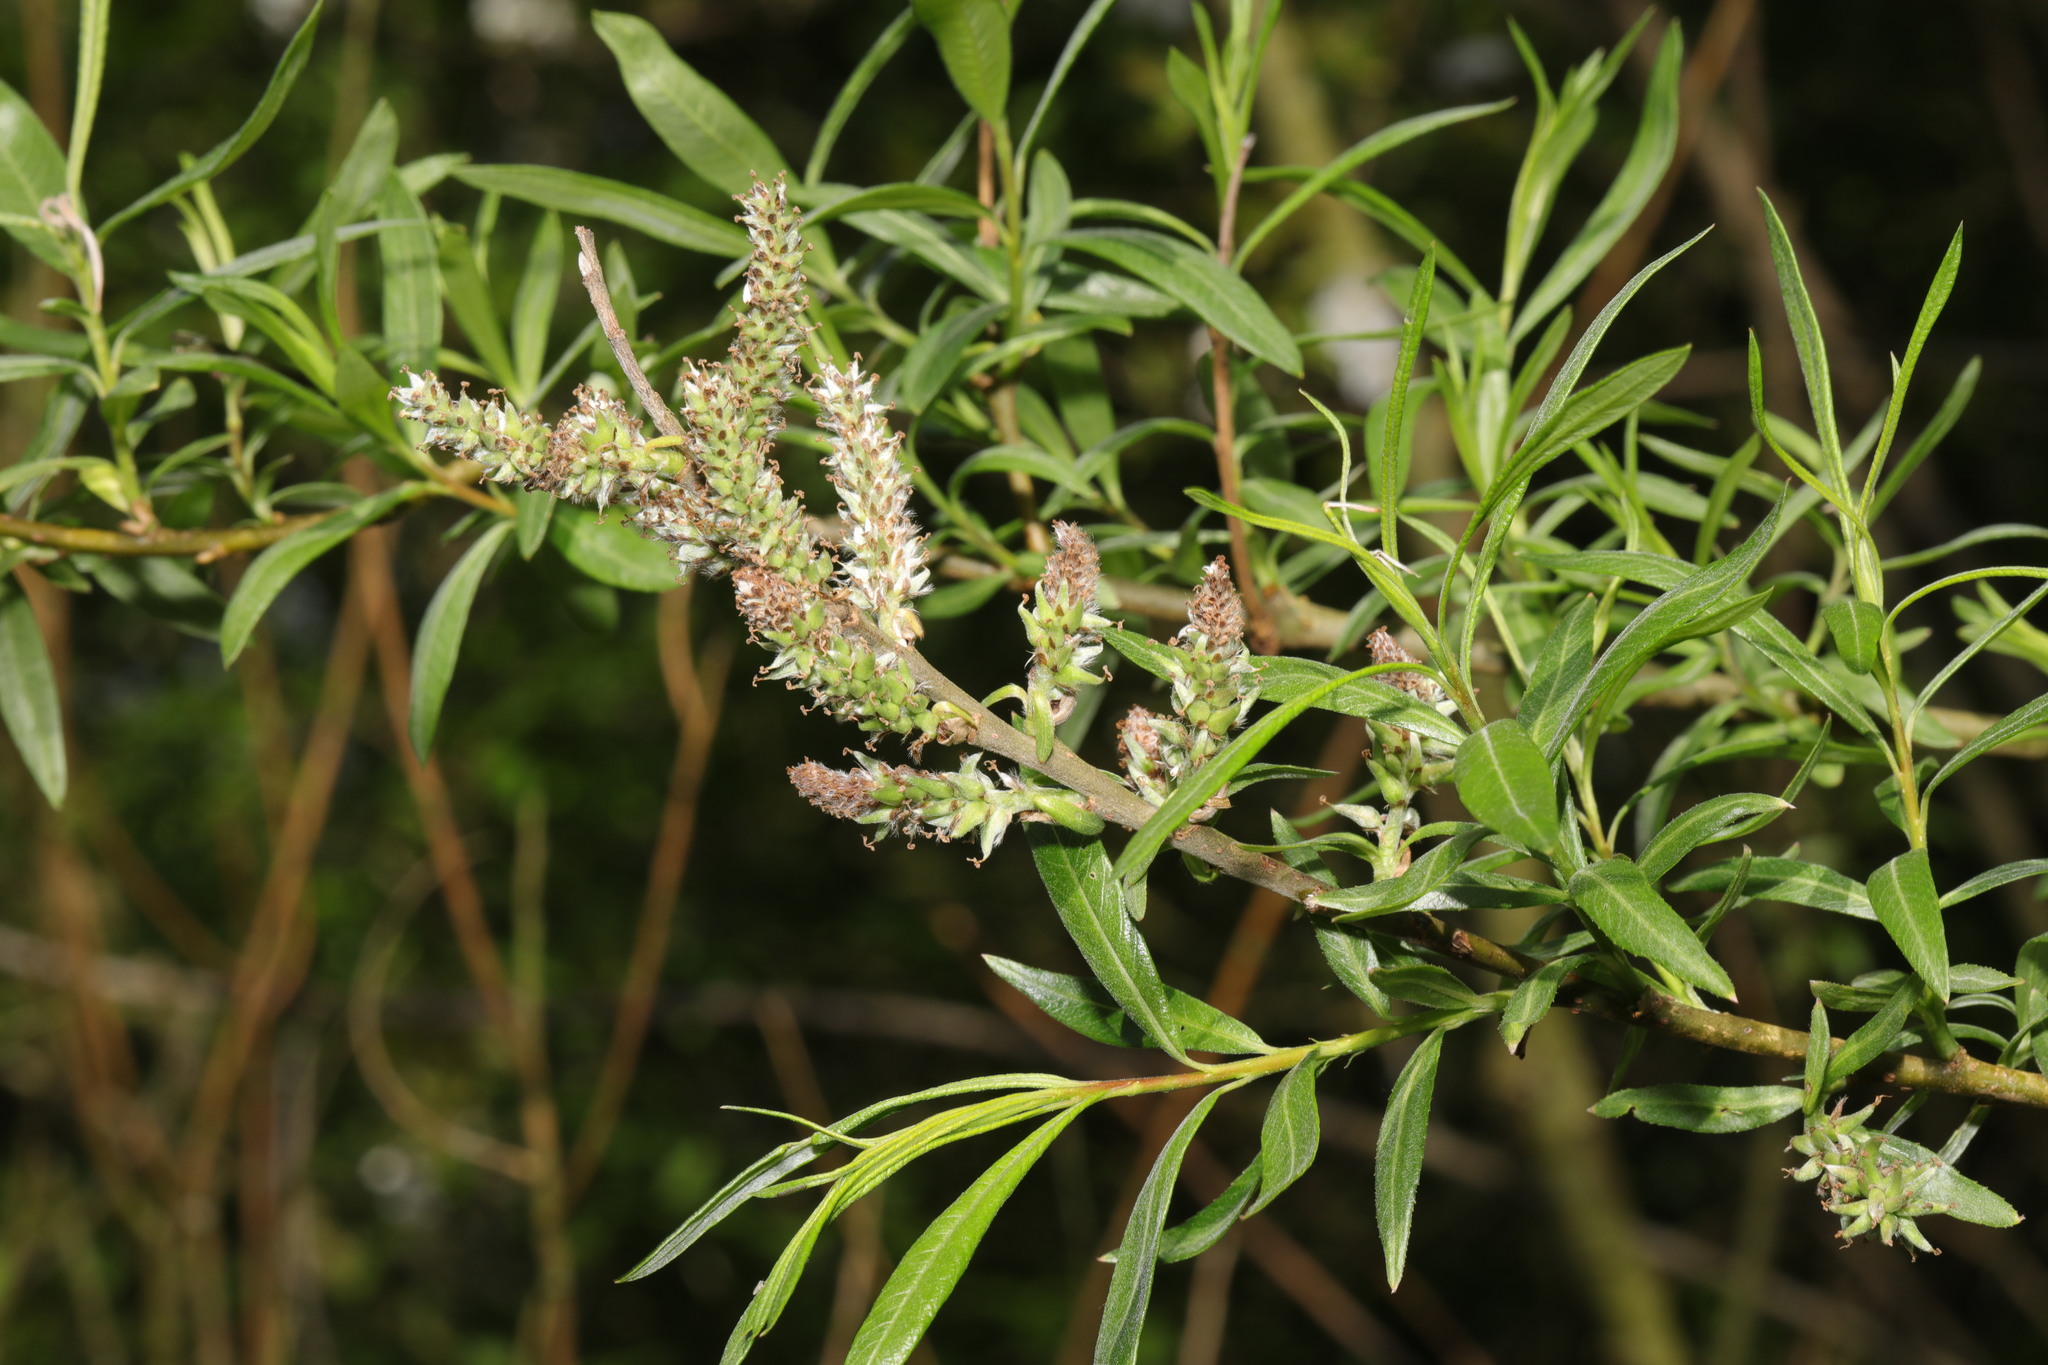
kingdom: Plantae
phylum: Tracheophyta
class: Magnoliopsida
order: Malpighiales
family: Salicaceae
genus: Salix
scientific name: Salix viminalis
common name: Osier
